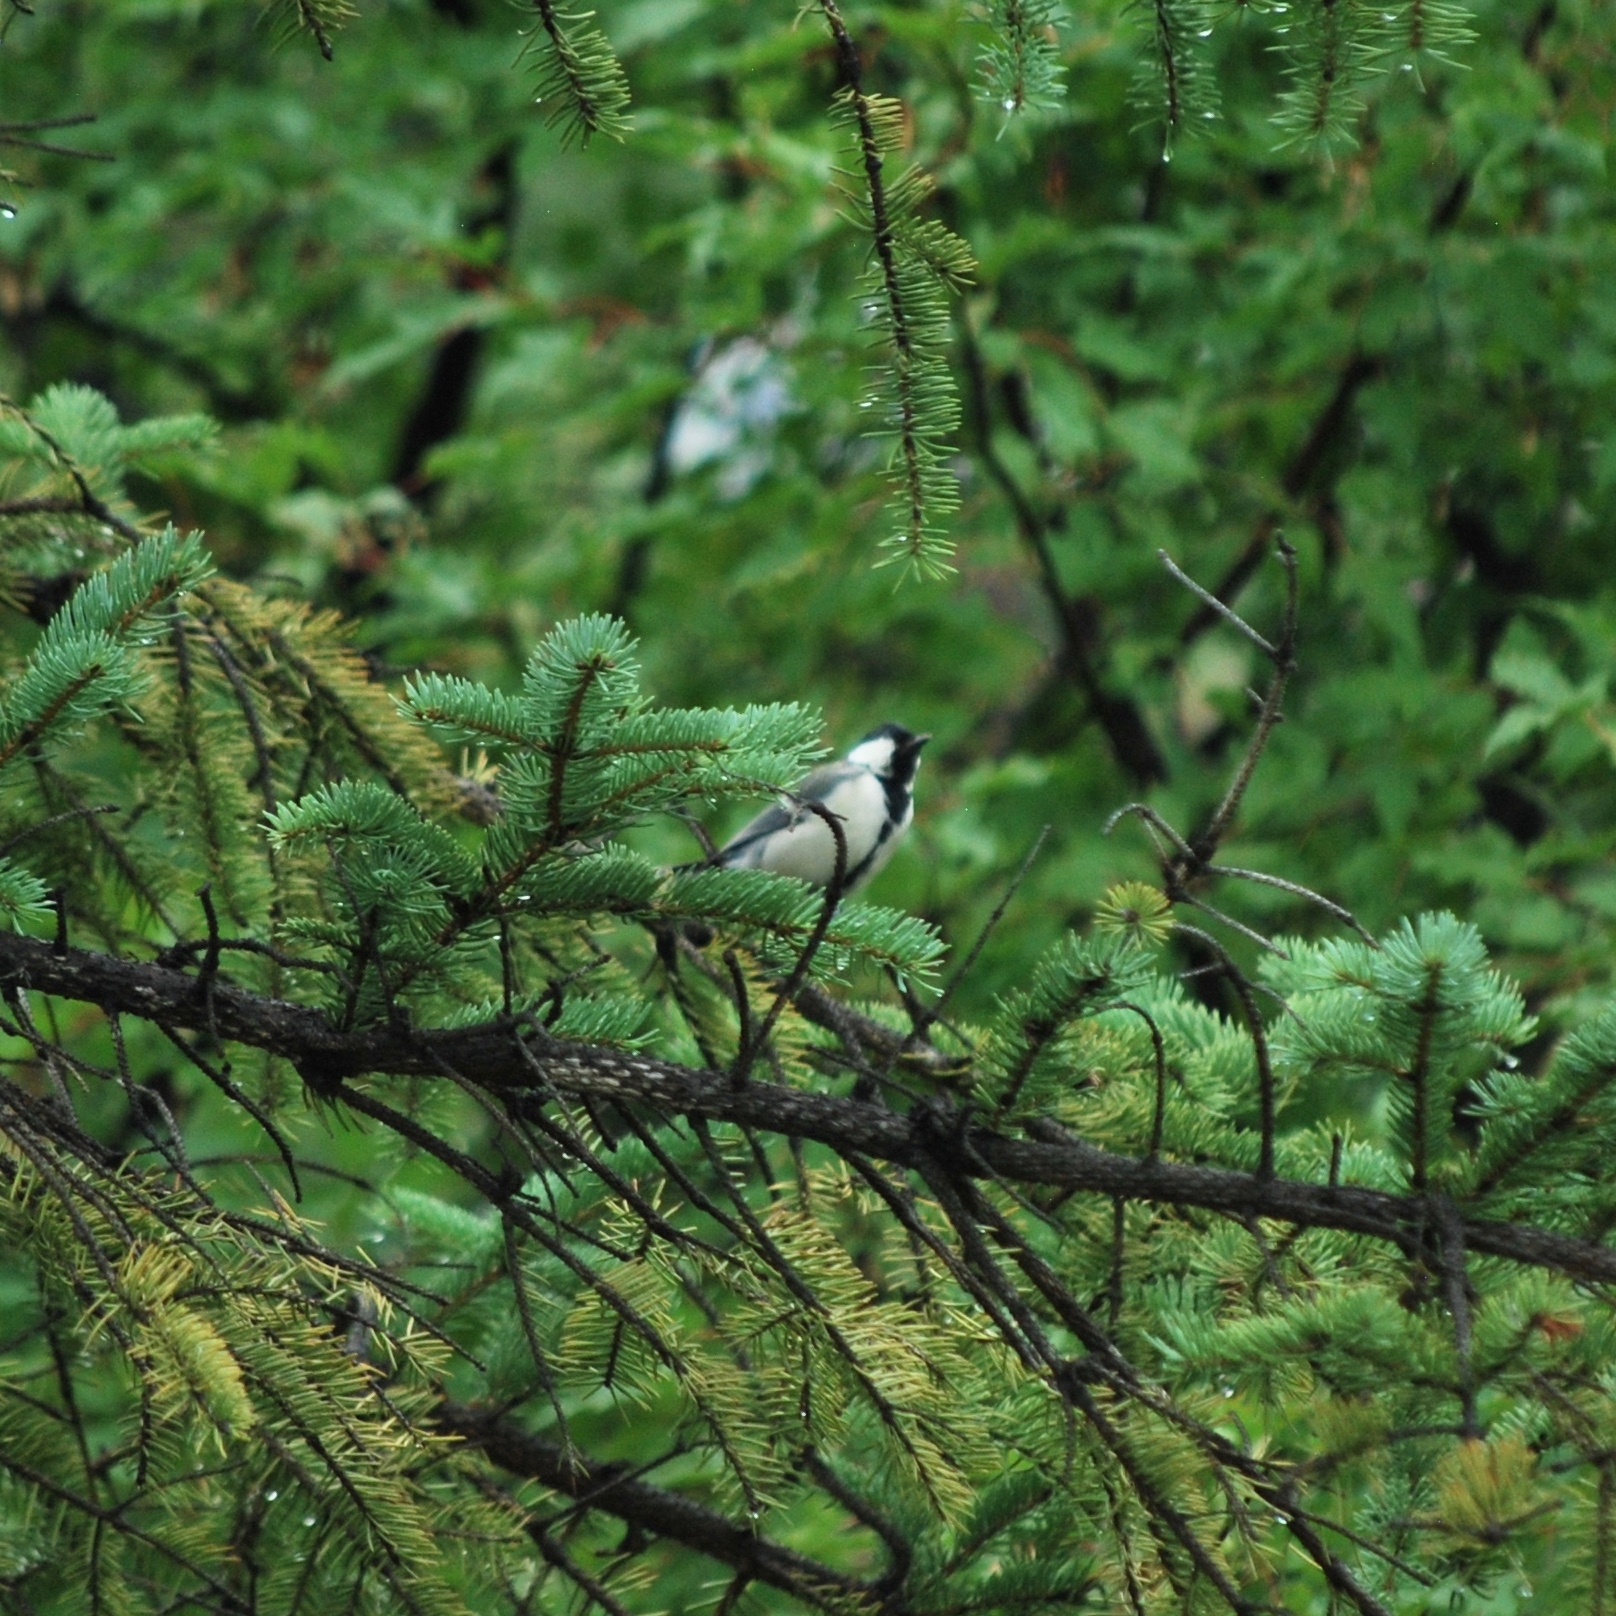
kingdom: Animalia
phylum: Chordata
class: Aves
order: Passeriformes
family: Paridae
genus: Parus
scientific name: Parus minor
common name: Japanese tit
